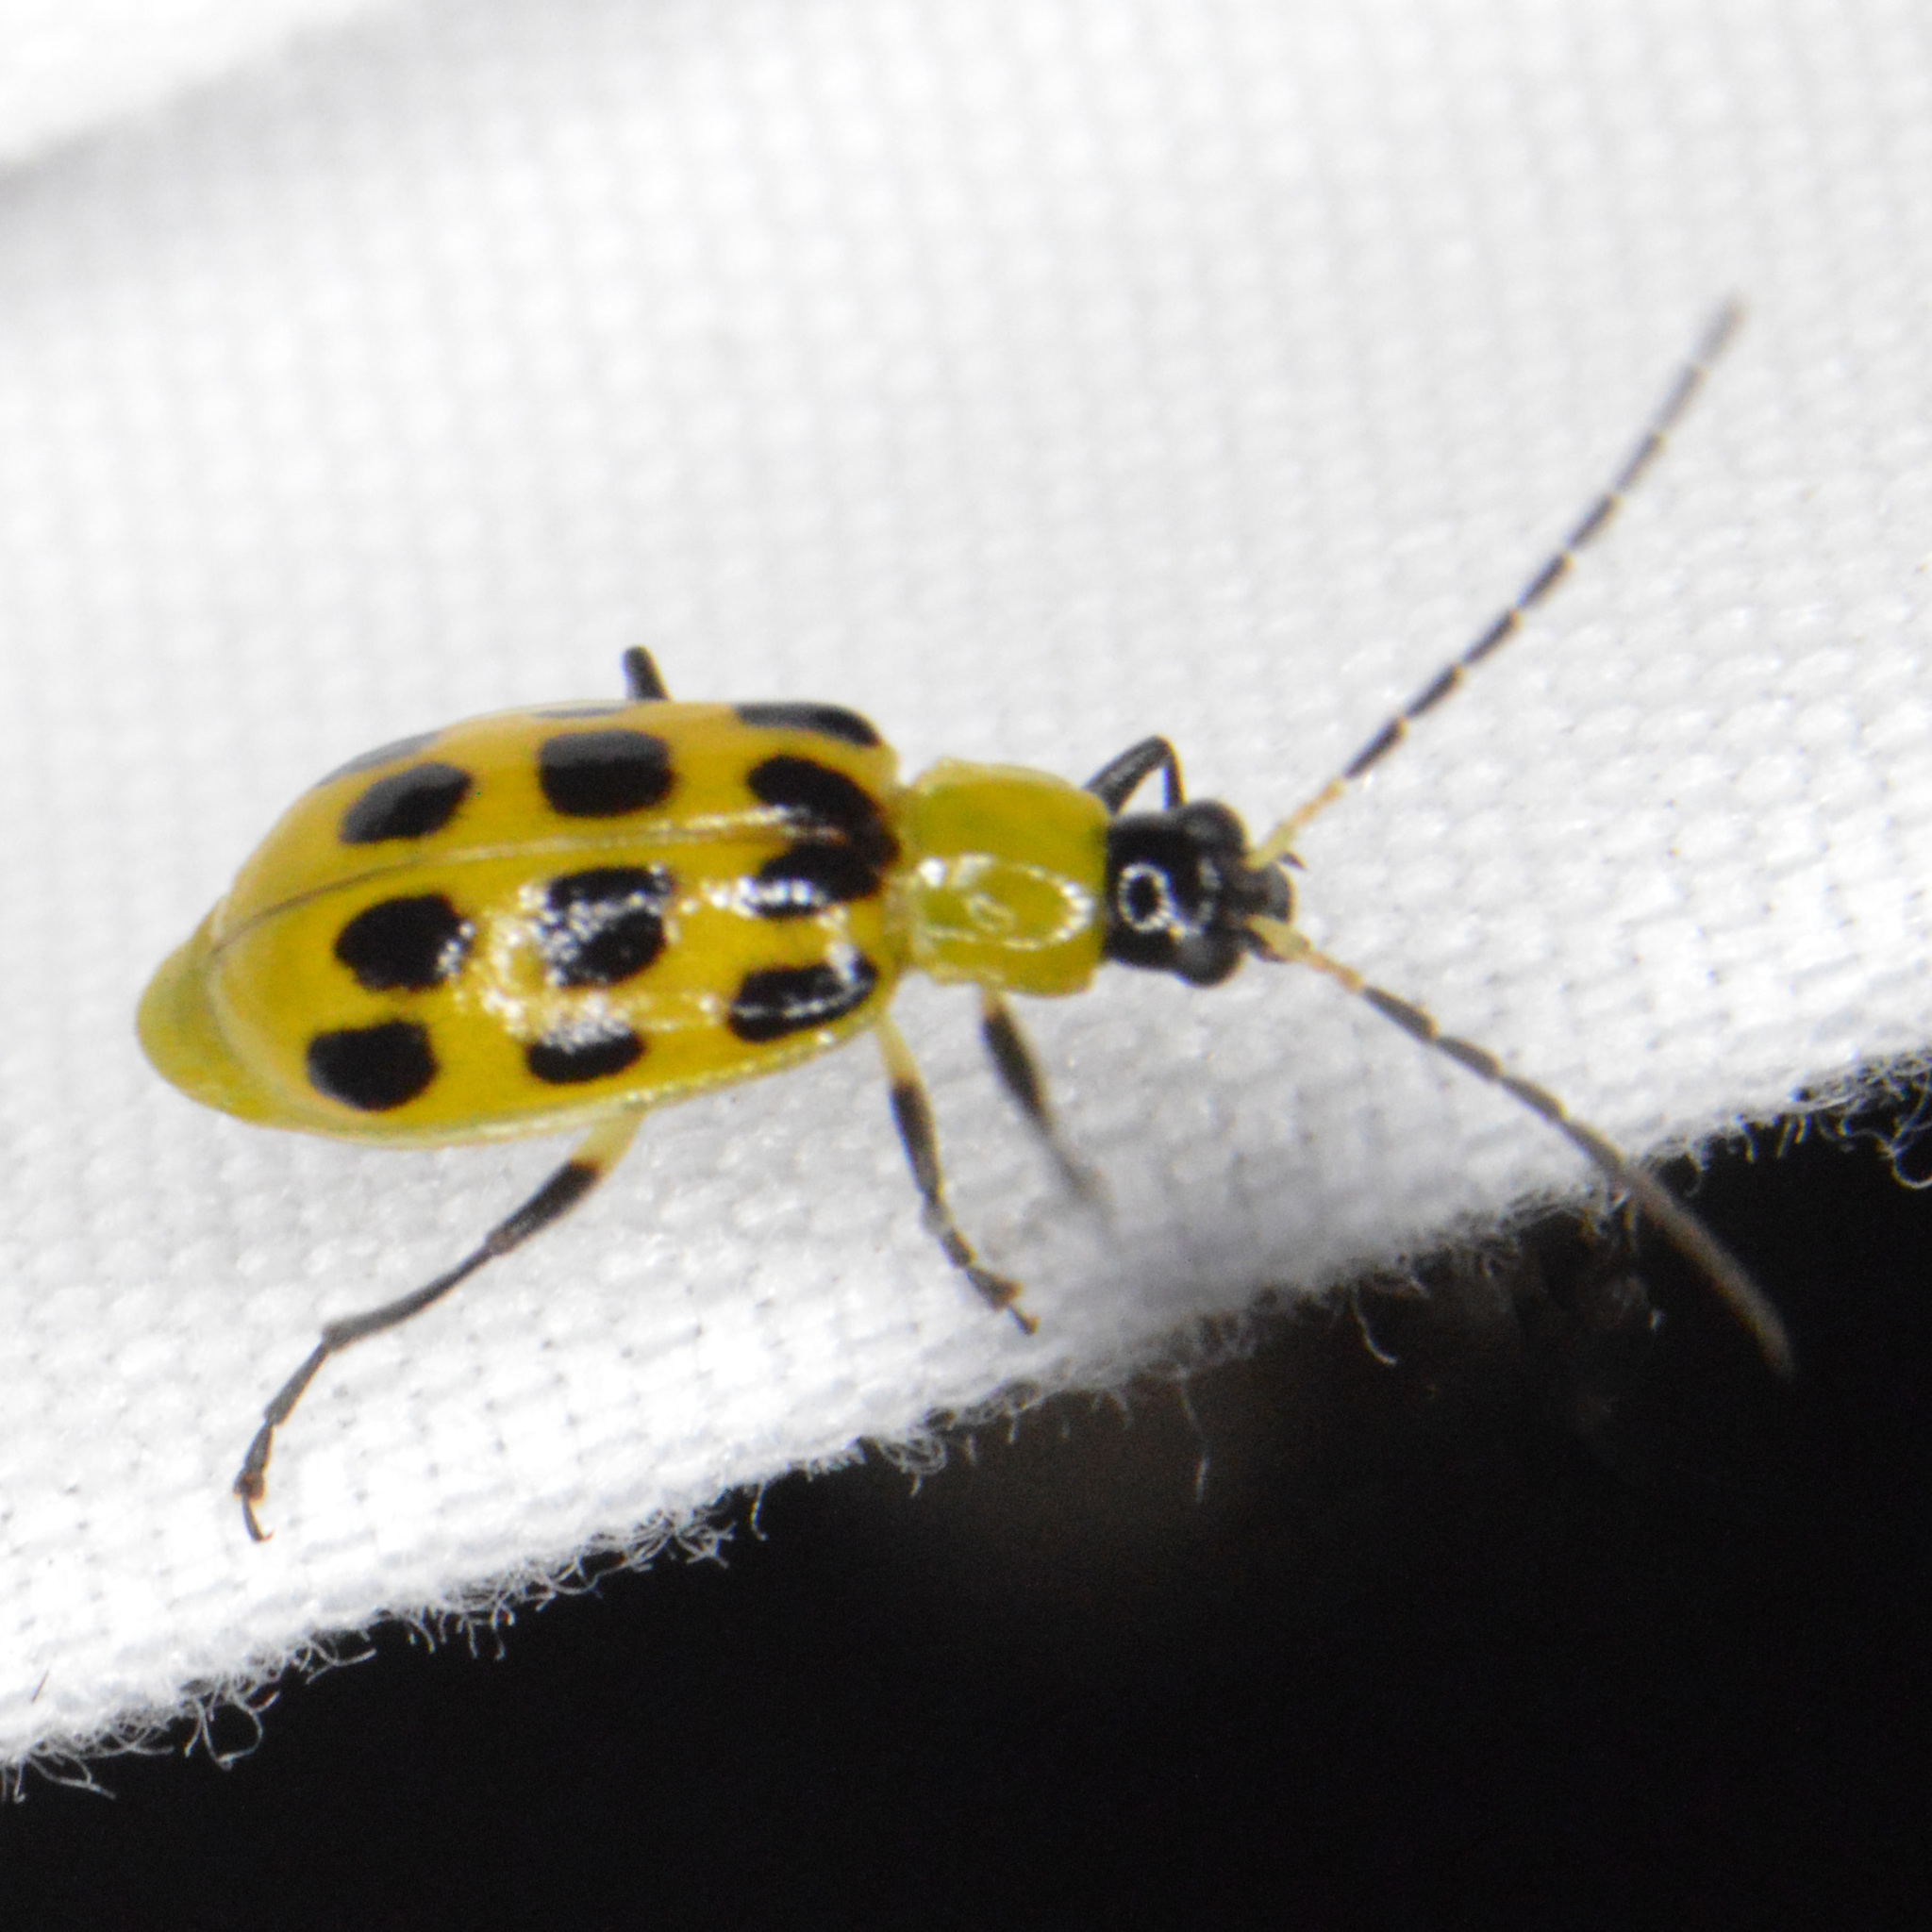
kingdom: Animalia
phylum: Arthropoda
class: Insecta
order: Coleoptera
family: Chrysomelidae
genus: Diabrotica
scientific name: Diabrotica undecimpunctata
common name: Spotted cucumber beetle
